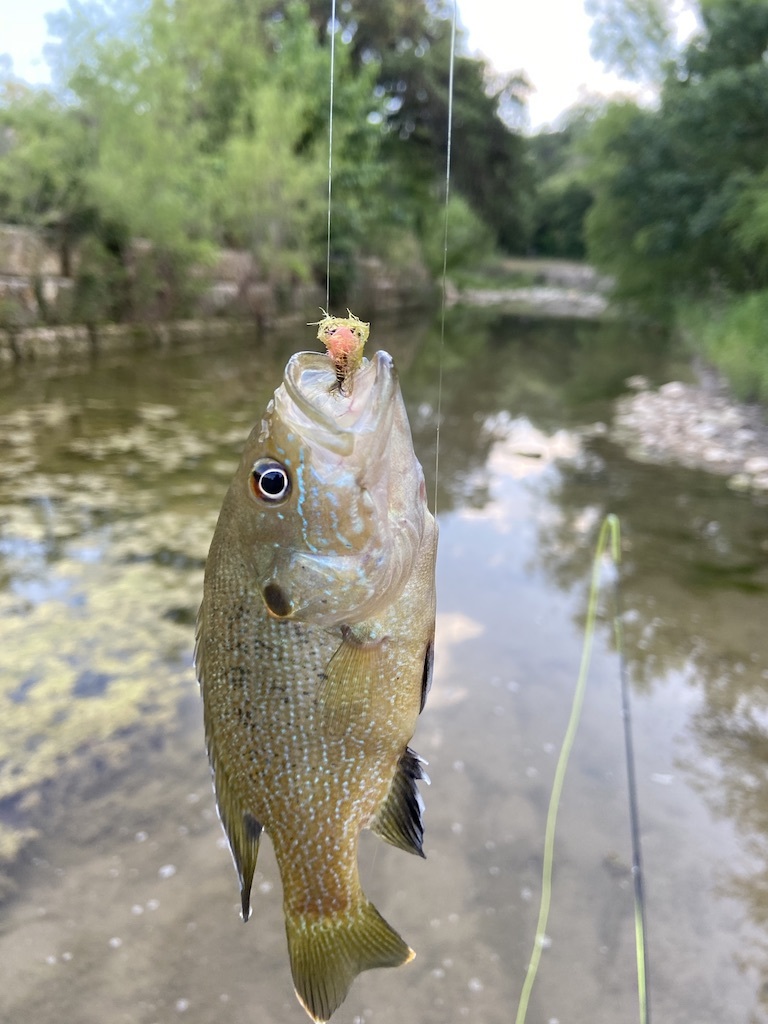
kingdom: Animalia
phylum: Chordata
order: Perciformes
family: Centrarchidae
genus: Lepomis
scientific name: Lepomis cyanellus
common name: Green sunfish
